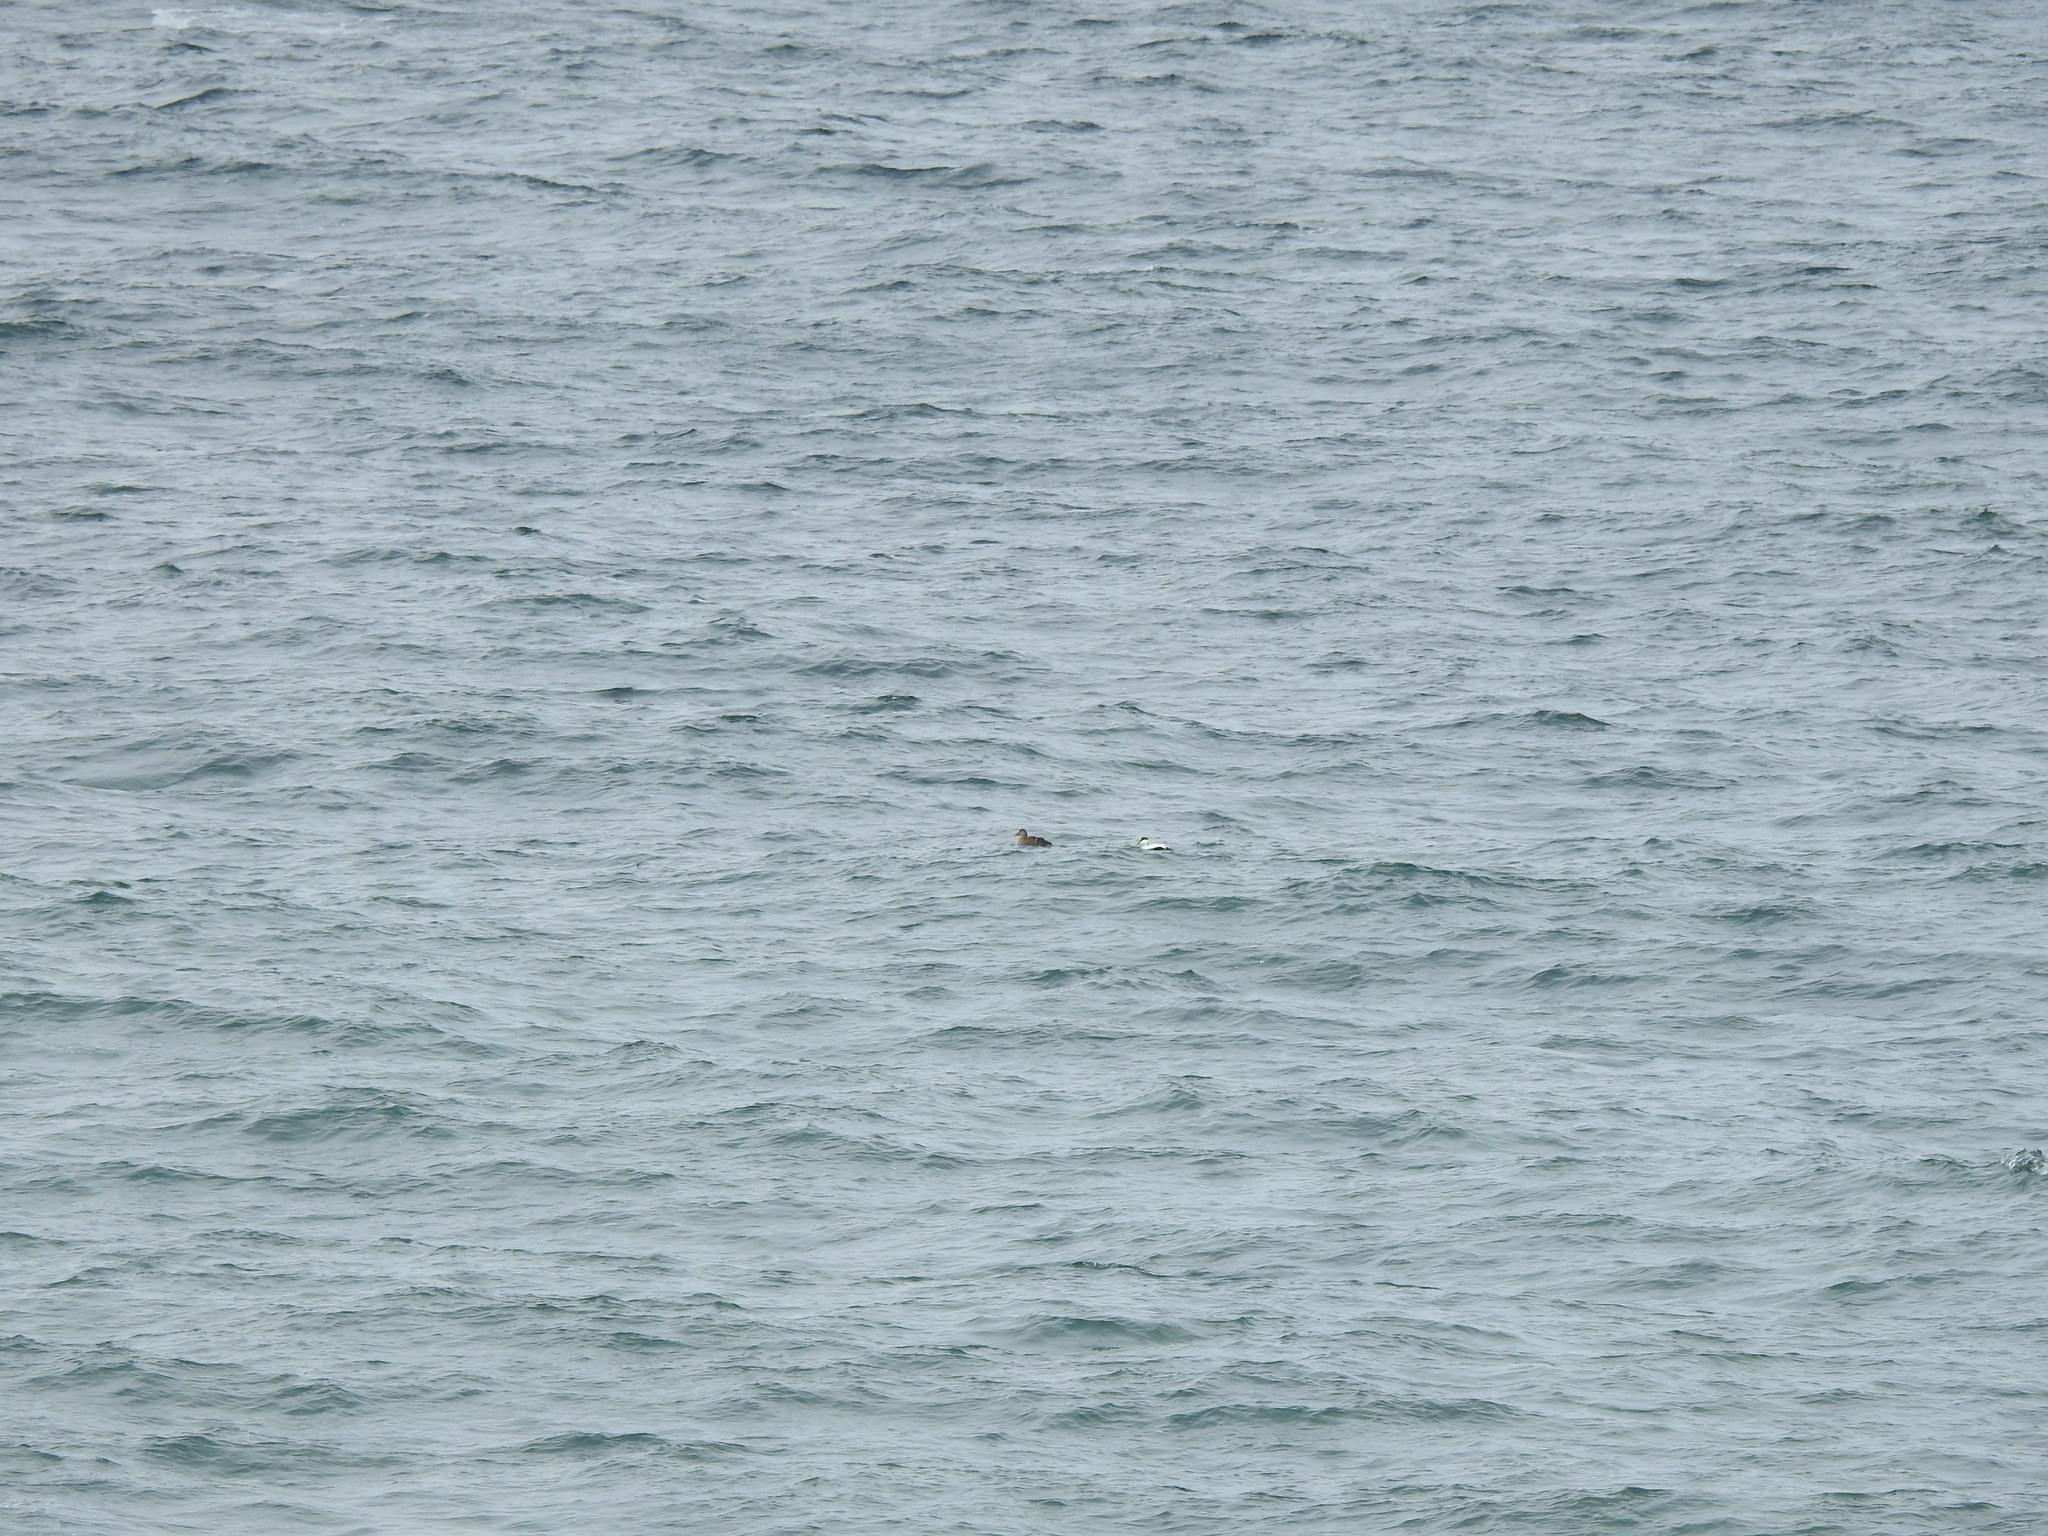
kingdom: Animalia
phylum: Chordata
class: Aves
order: Anseriformes
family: Anatidae
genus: Somateria
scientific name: Somateria mollissima
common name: Common eider
